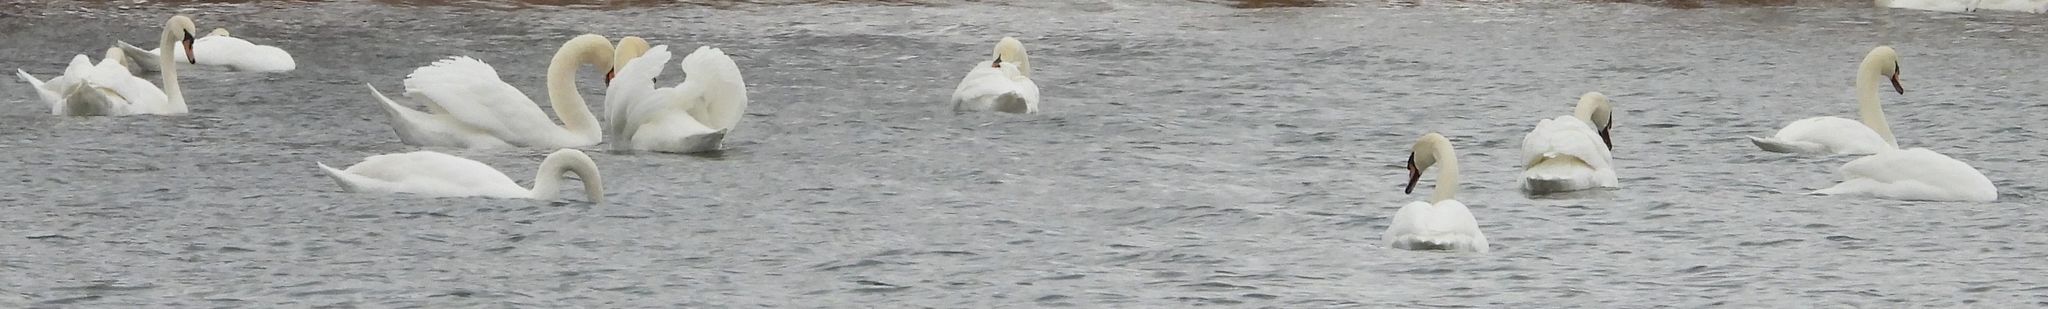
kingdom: Animalia
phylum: Chordata
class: Aves
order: Anseriformes
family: Anatidae
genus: Cygnus
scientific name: Cygnus olor
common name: Mute swan
